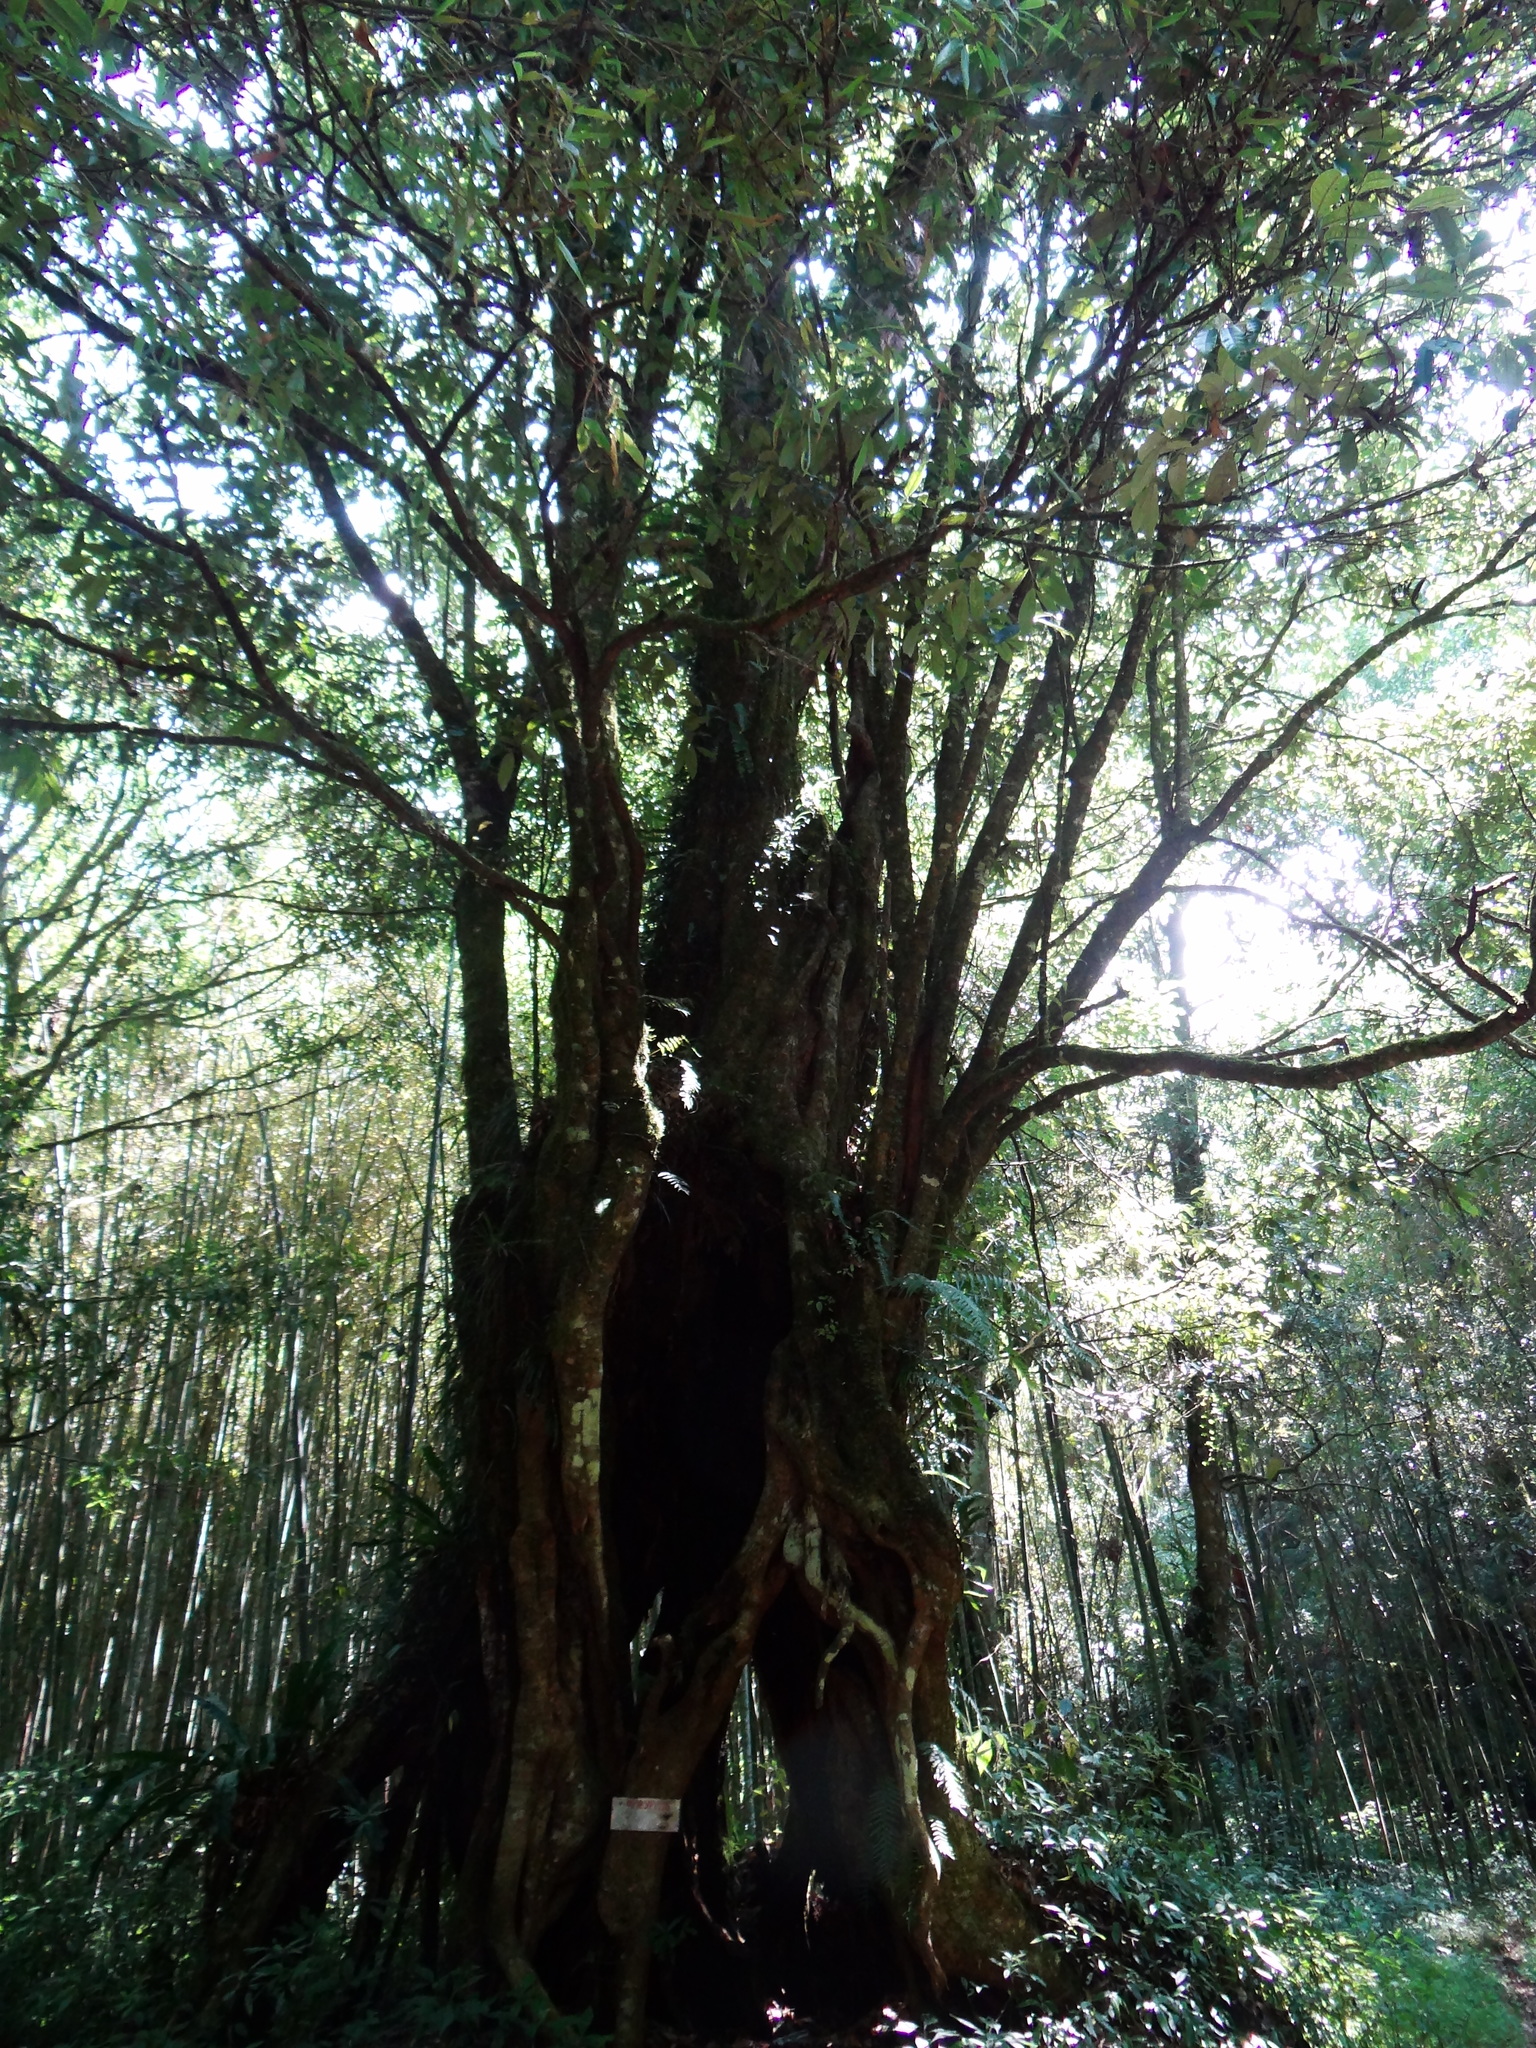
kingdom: Plantae
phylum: Tracheophyta
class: Magnoliopsida
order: Fagales
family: Fagaceae
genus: Castanopsis
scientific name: Castanopsis faberi
